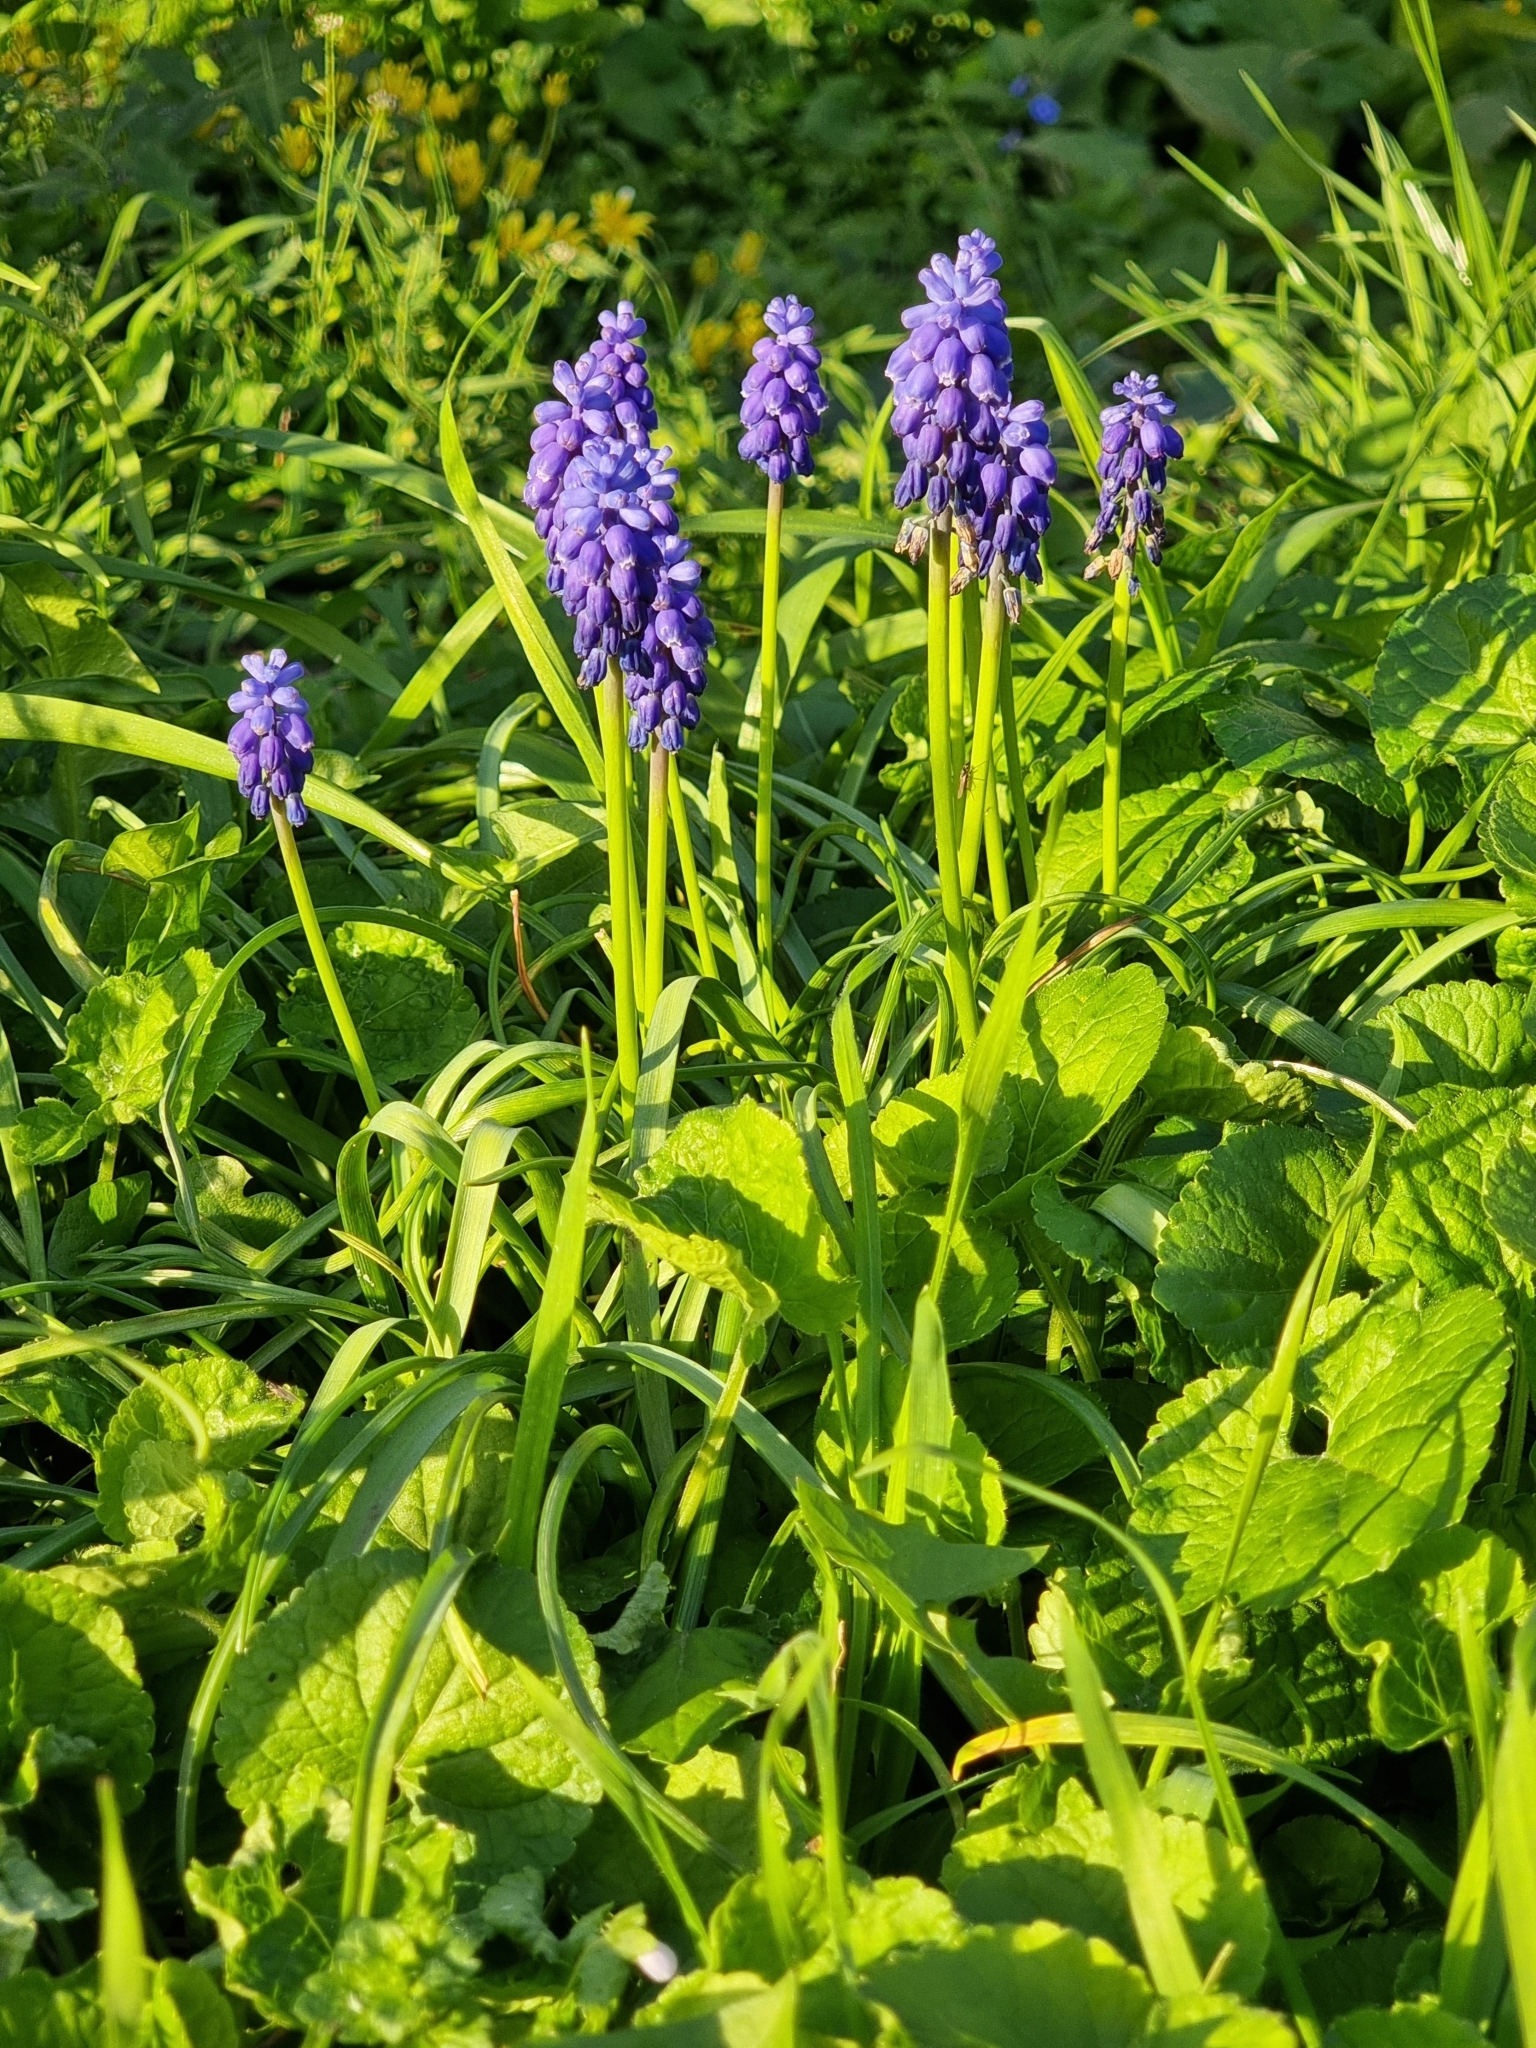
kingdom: Plantae
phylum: Tracheophyta
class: Liliopsida
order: Asparagales
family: Asparagaceae
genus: Muscari
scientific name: Muscari armeniacum
